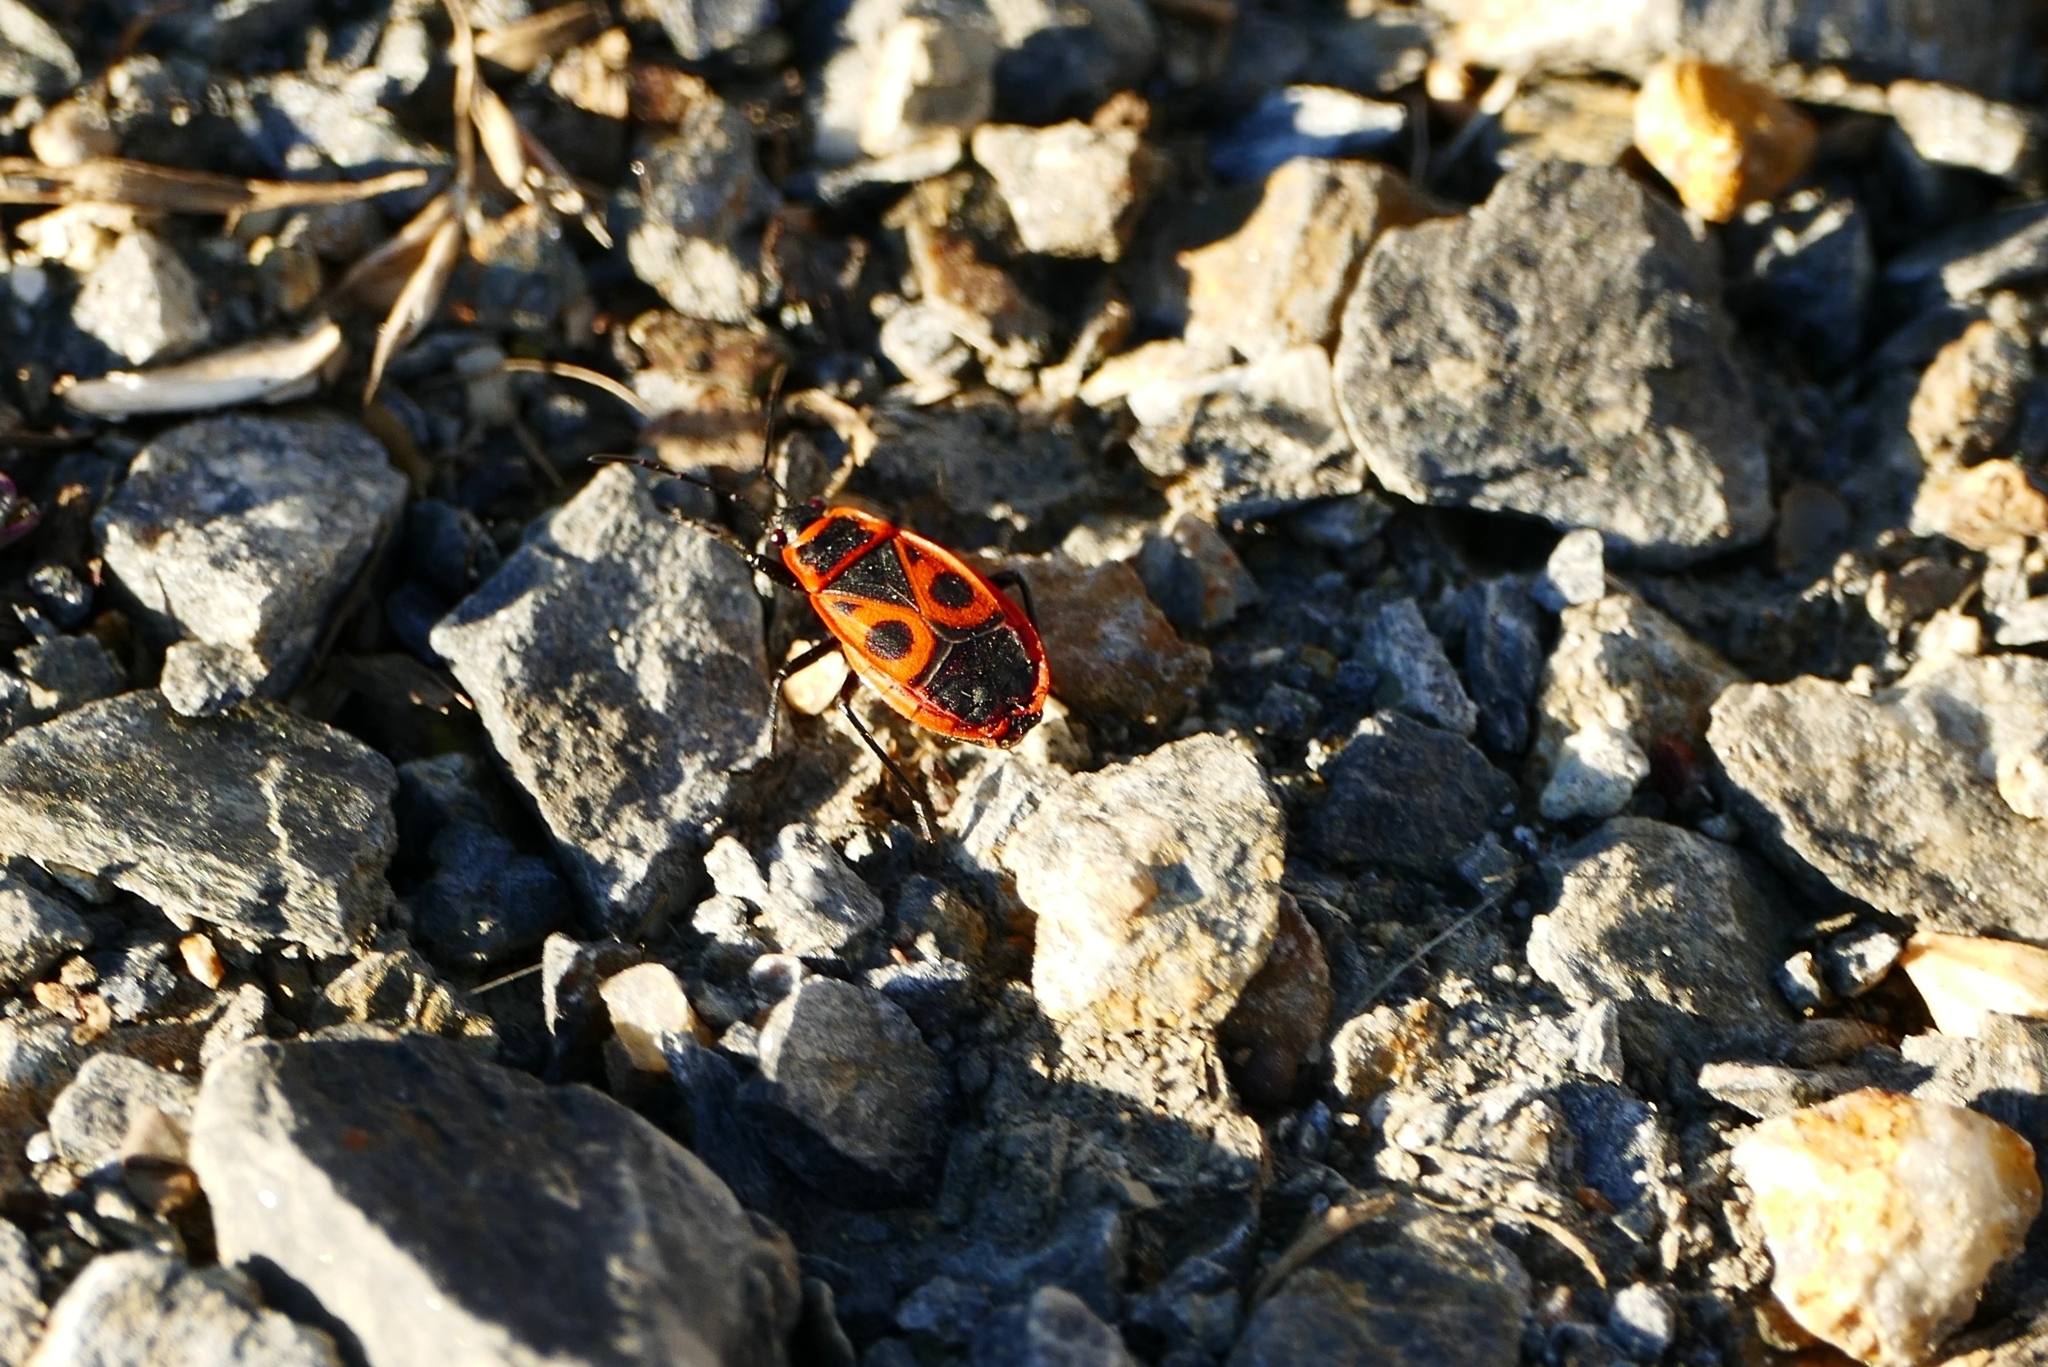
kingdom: Animalia
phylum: Arthropoda
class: Insecta
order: Hemiptera
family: Pyrrhocoridae
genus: Pyrrhocoris
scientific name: Pyrrhocoris apterus
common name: Firebug
